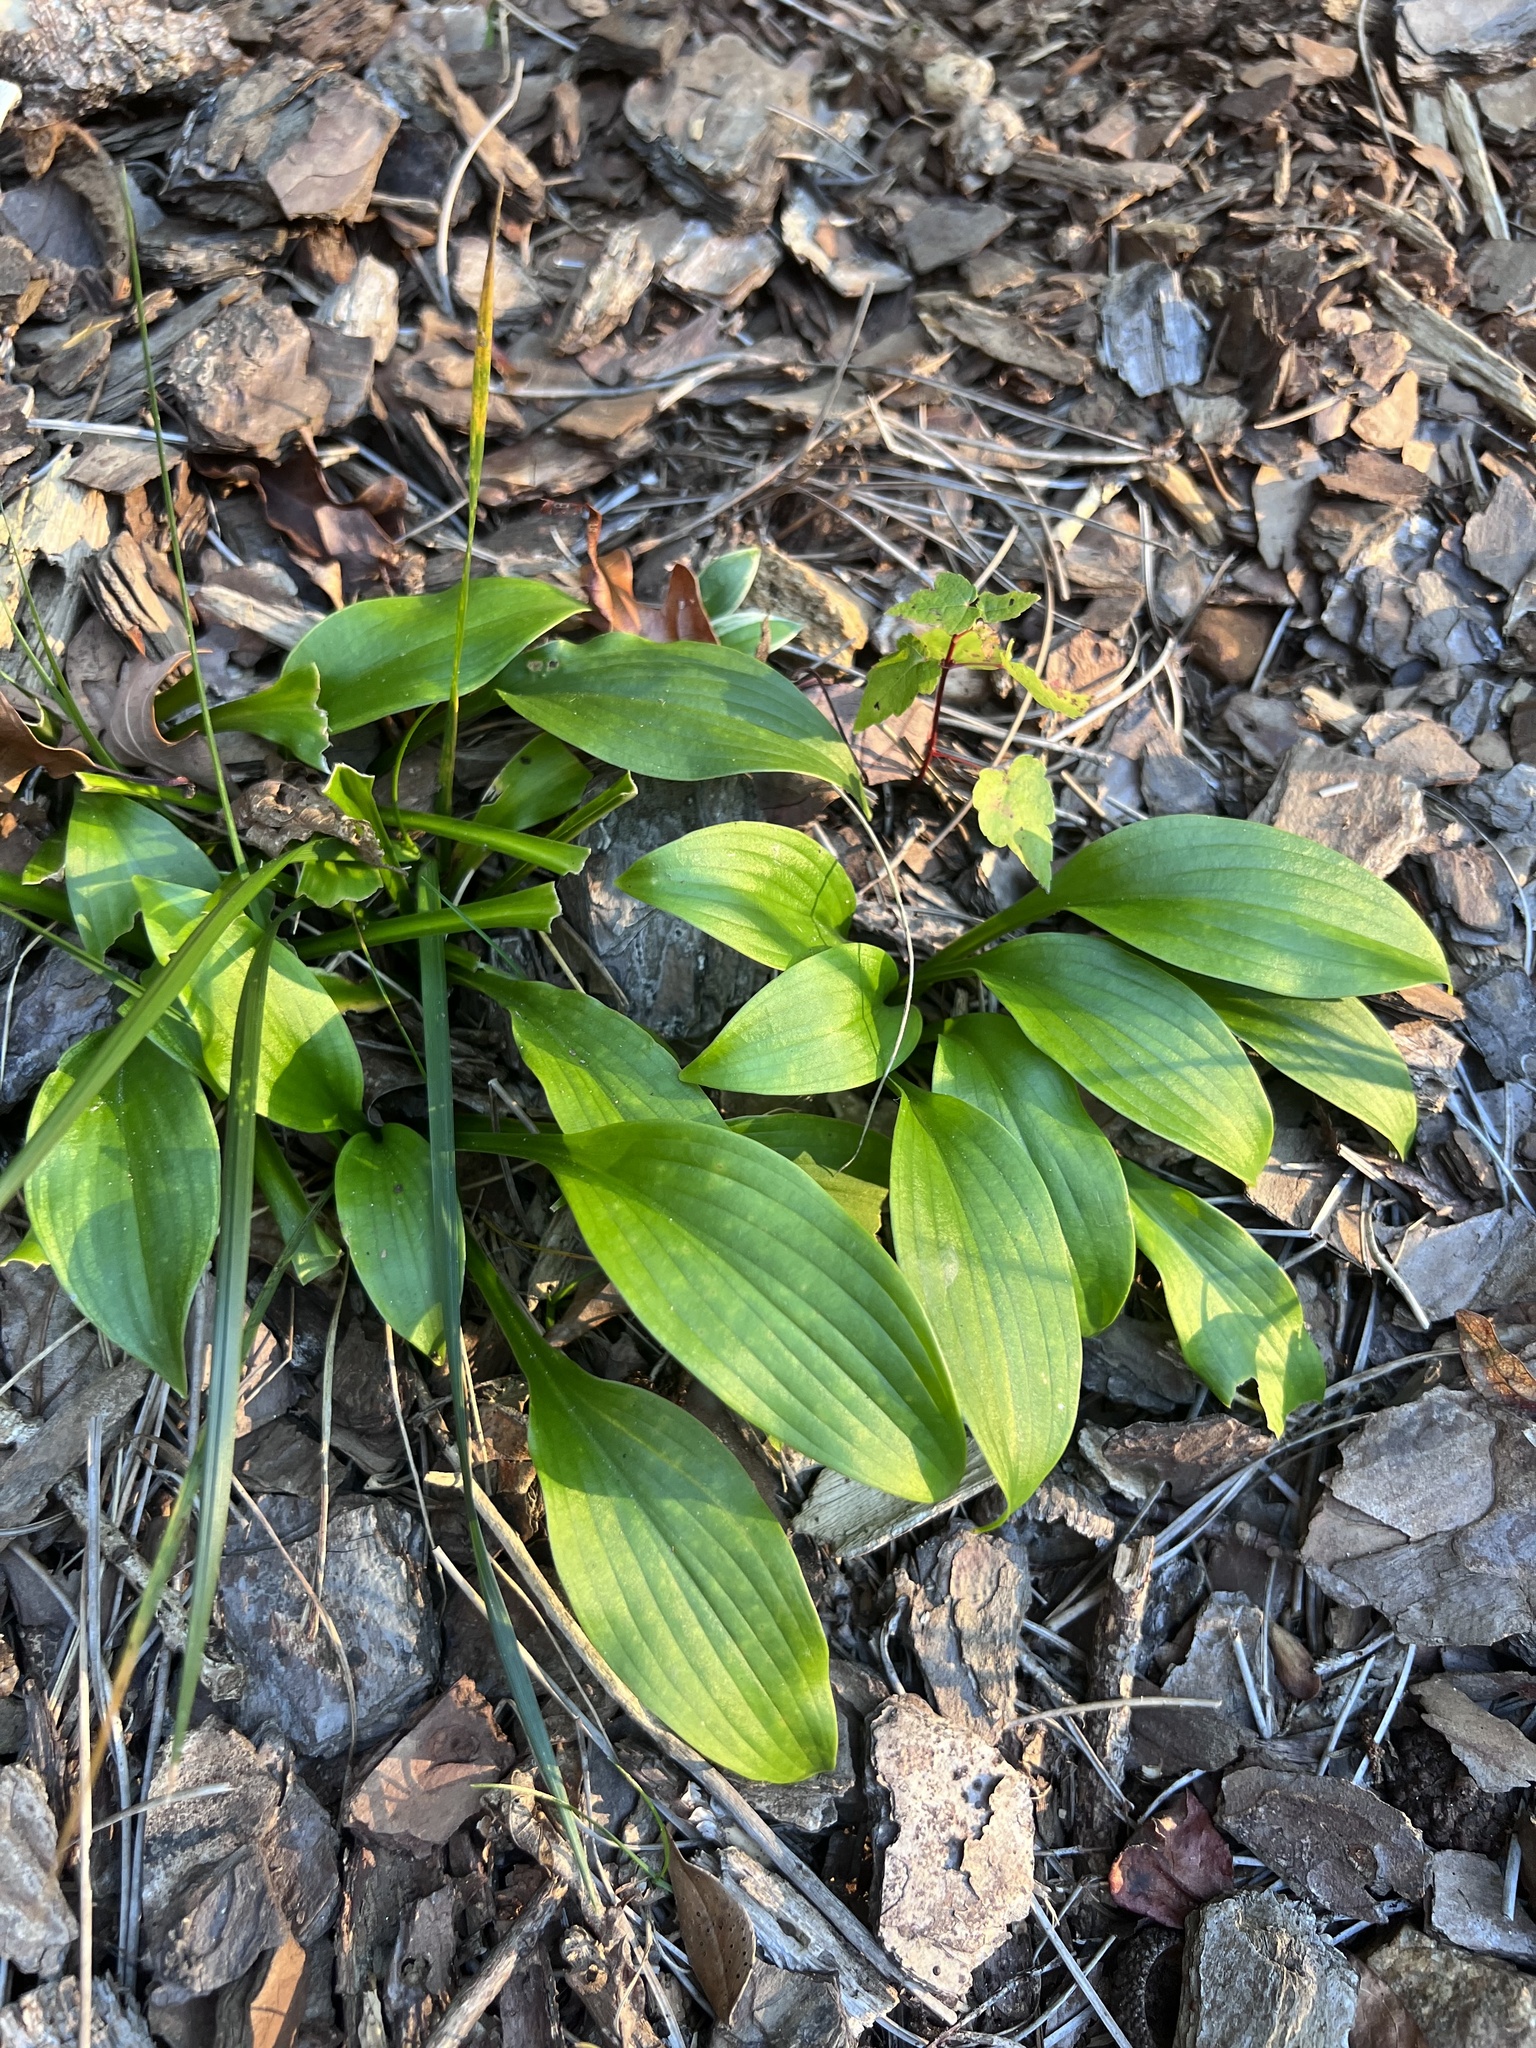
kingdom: Plantae
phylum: Tracheophyta
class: Liliopsida
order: Liliales
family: Liliaceae
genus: Tricyrtis
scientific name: Tricyrtis formosana
